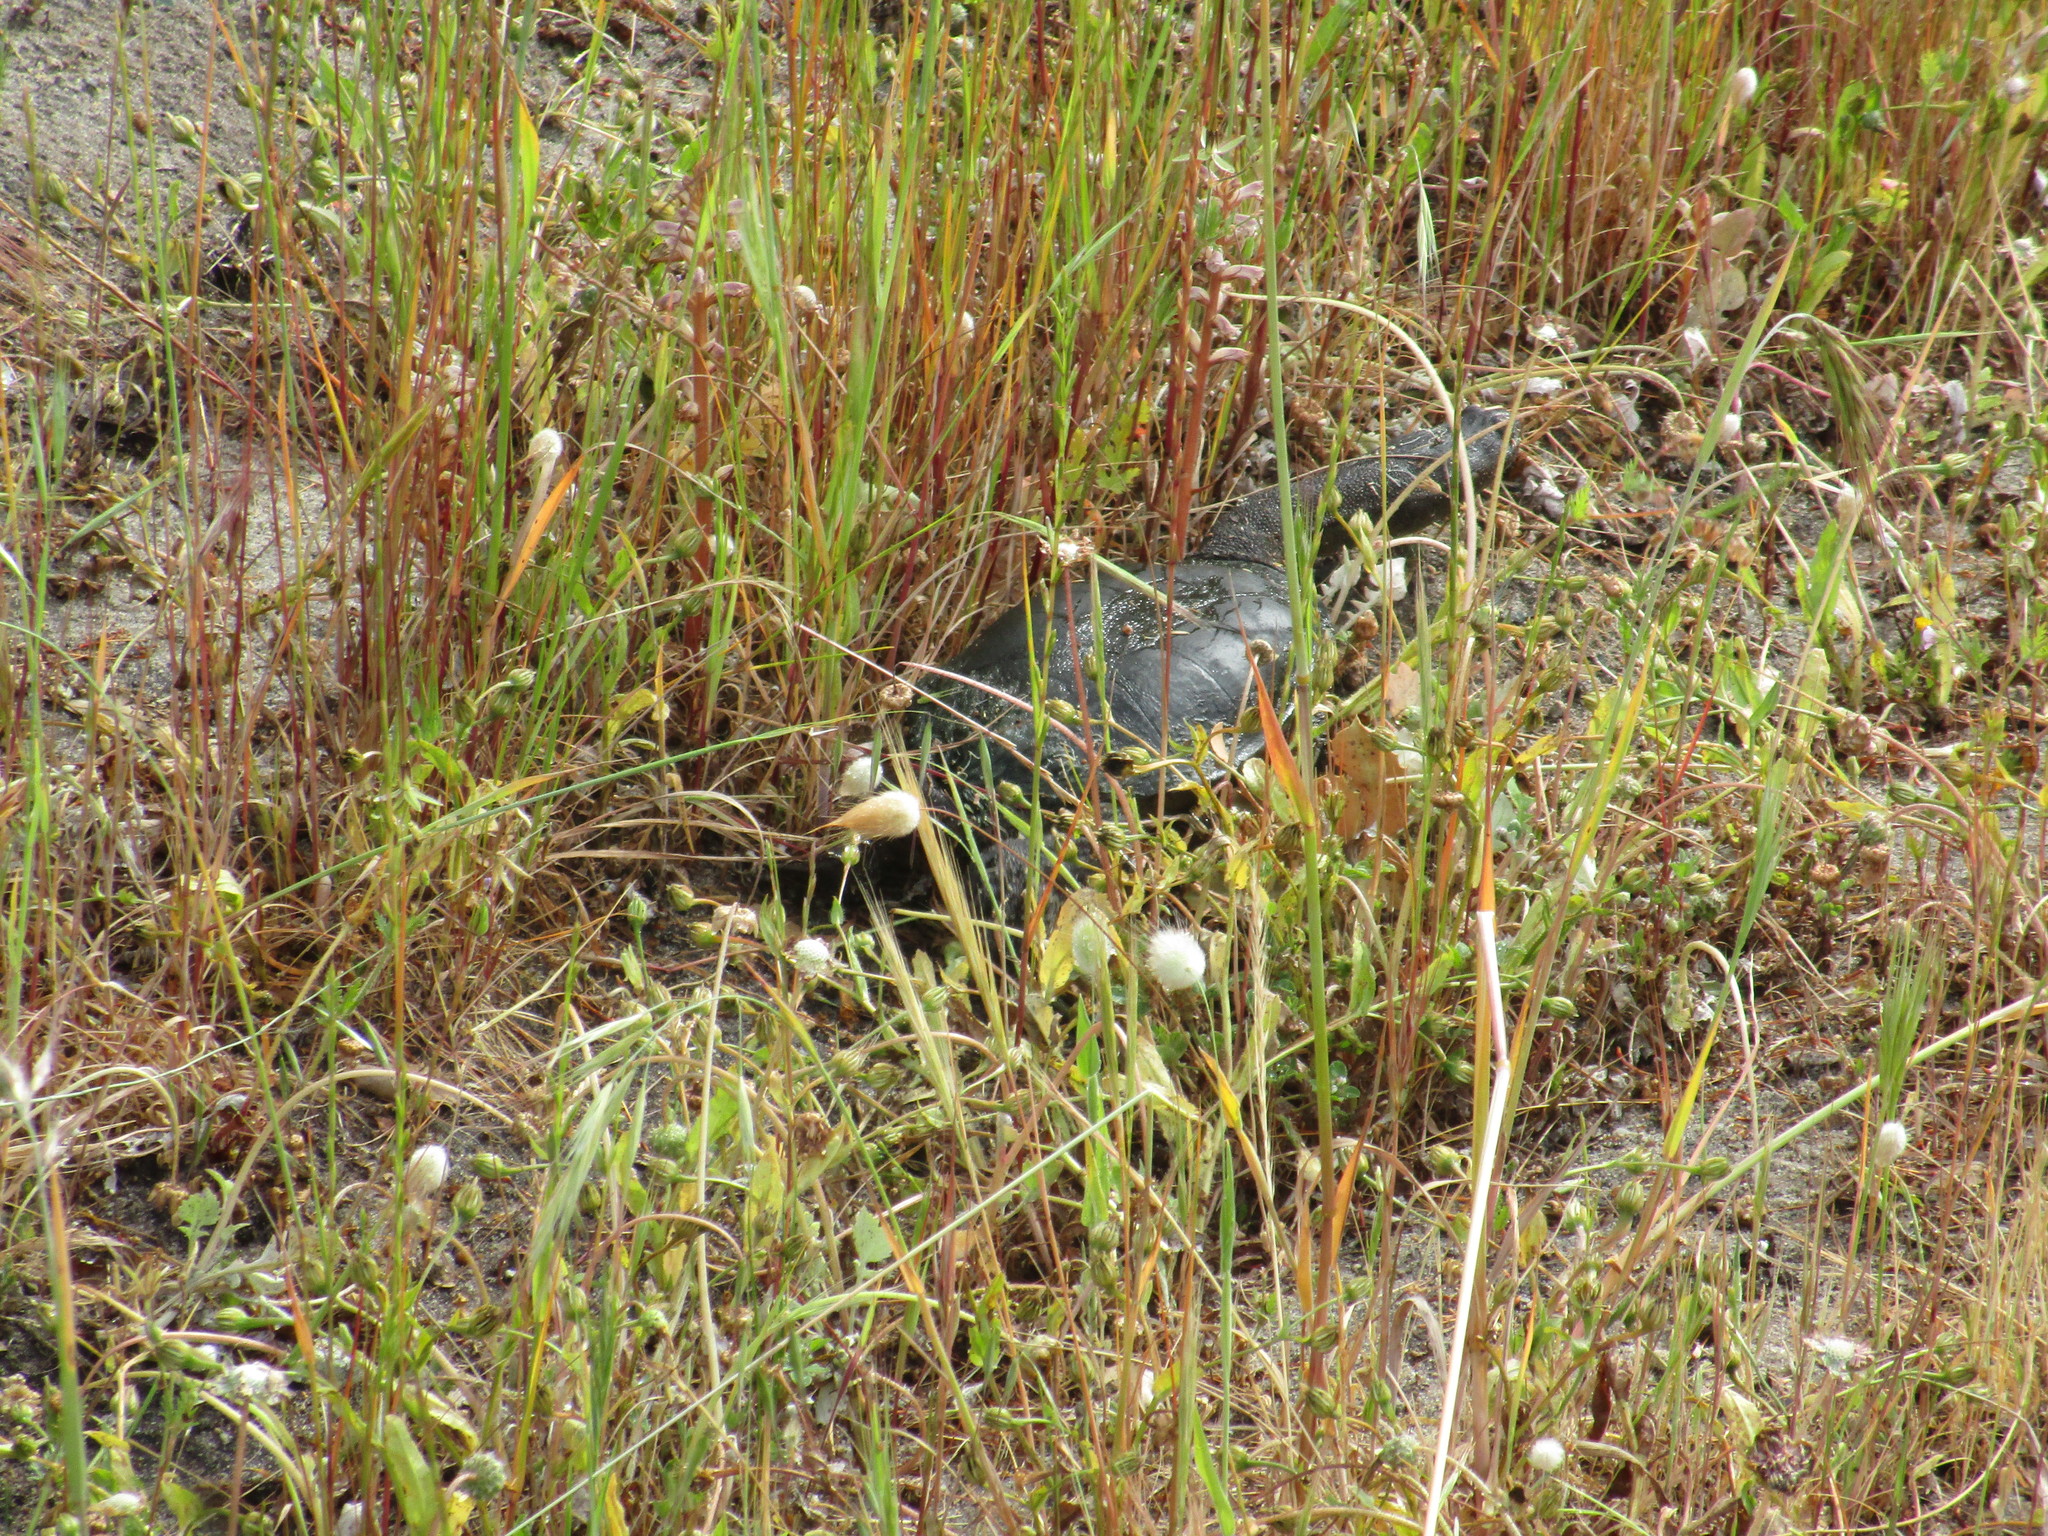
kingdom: Animalia
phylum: Chordata
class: Testudines
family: Chelidae
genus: Chelodina
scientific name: Chelodina oblonga
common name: Northern snake-necked turtle
